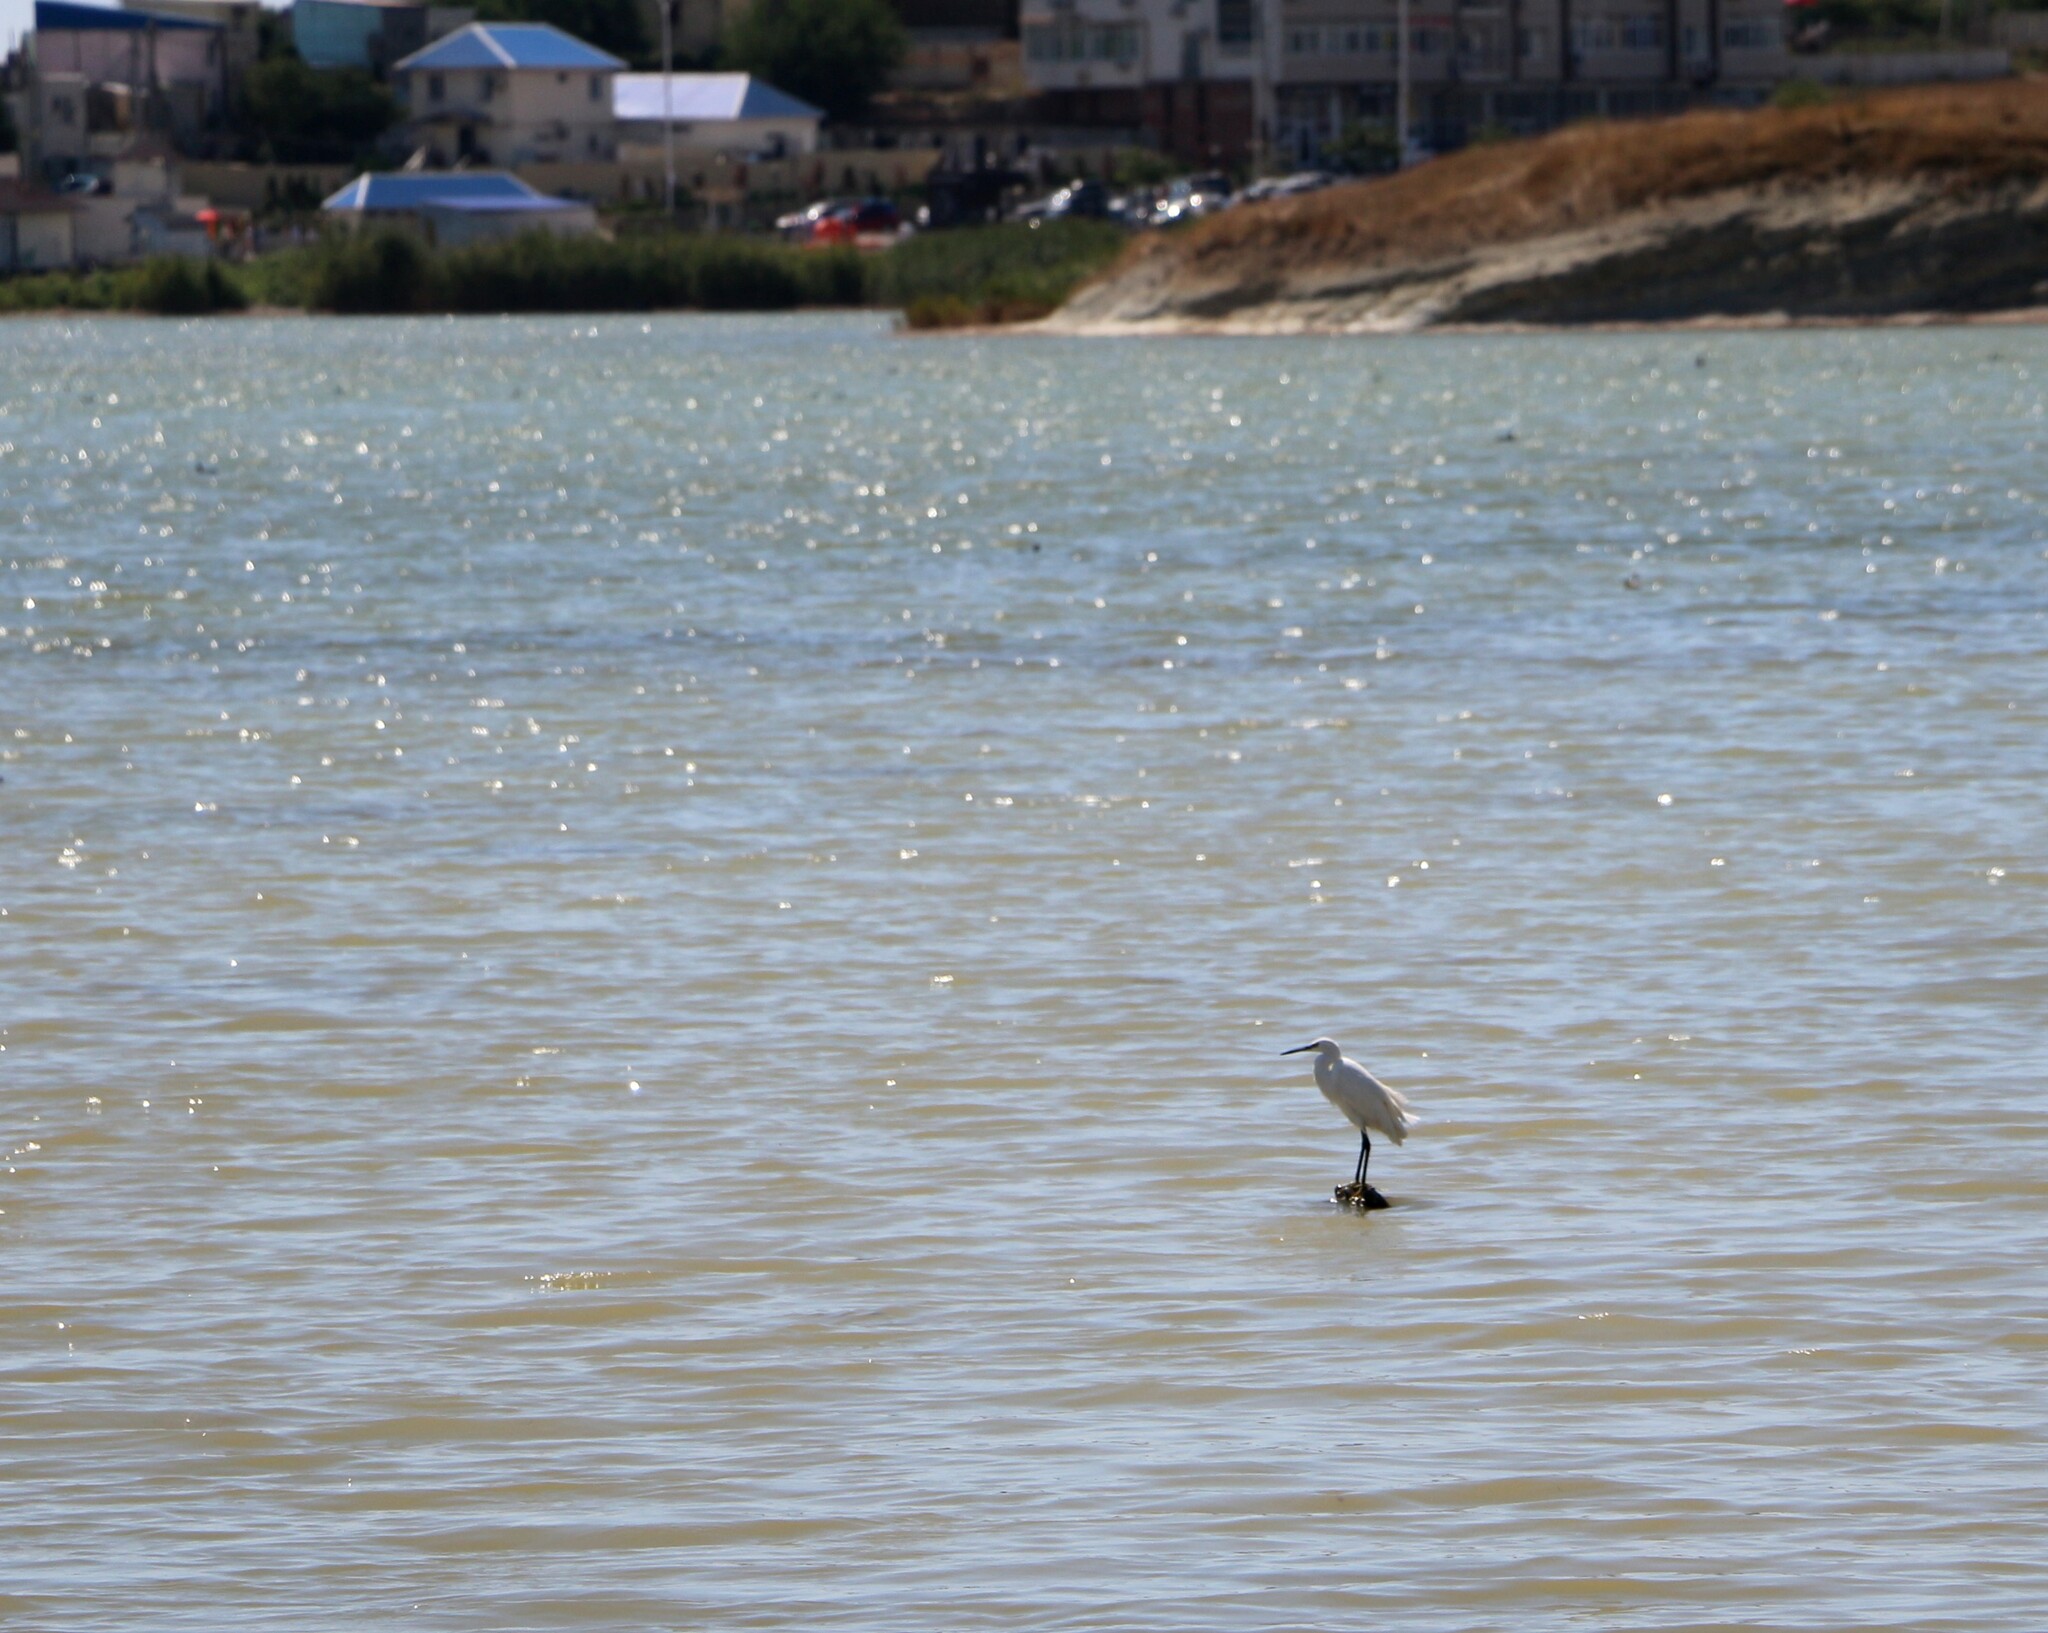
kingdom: Animalia
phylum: Chordata
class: Aves
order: Pelecaniformes
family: Ardeidae
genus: Egretta
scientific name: Egretta garzetta
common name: Little egret
